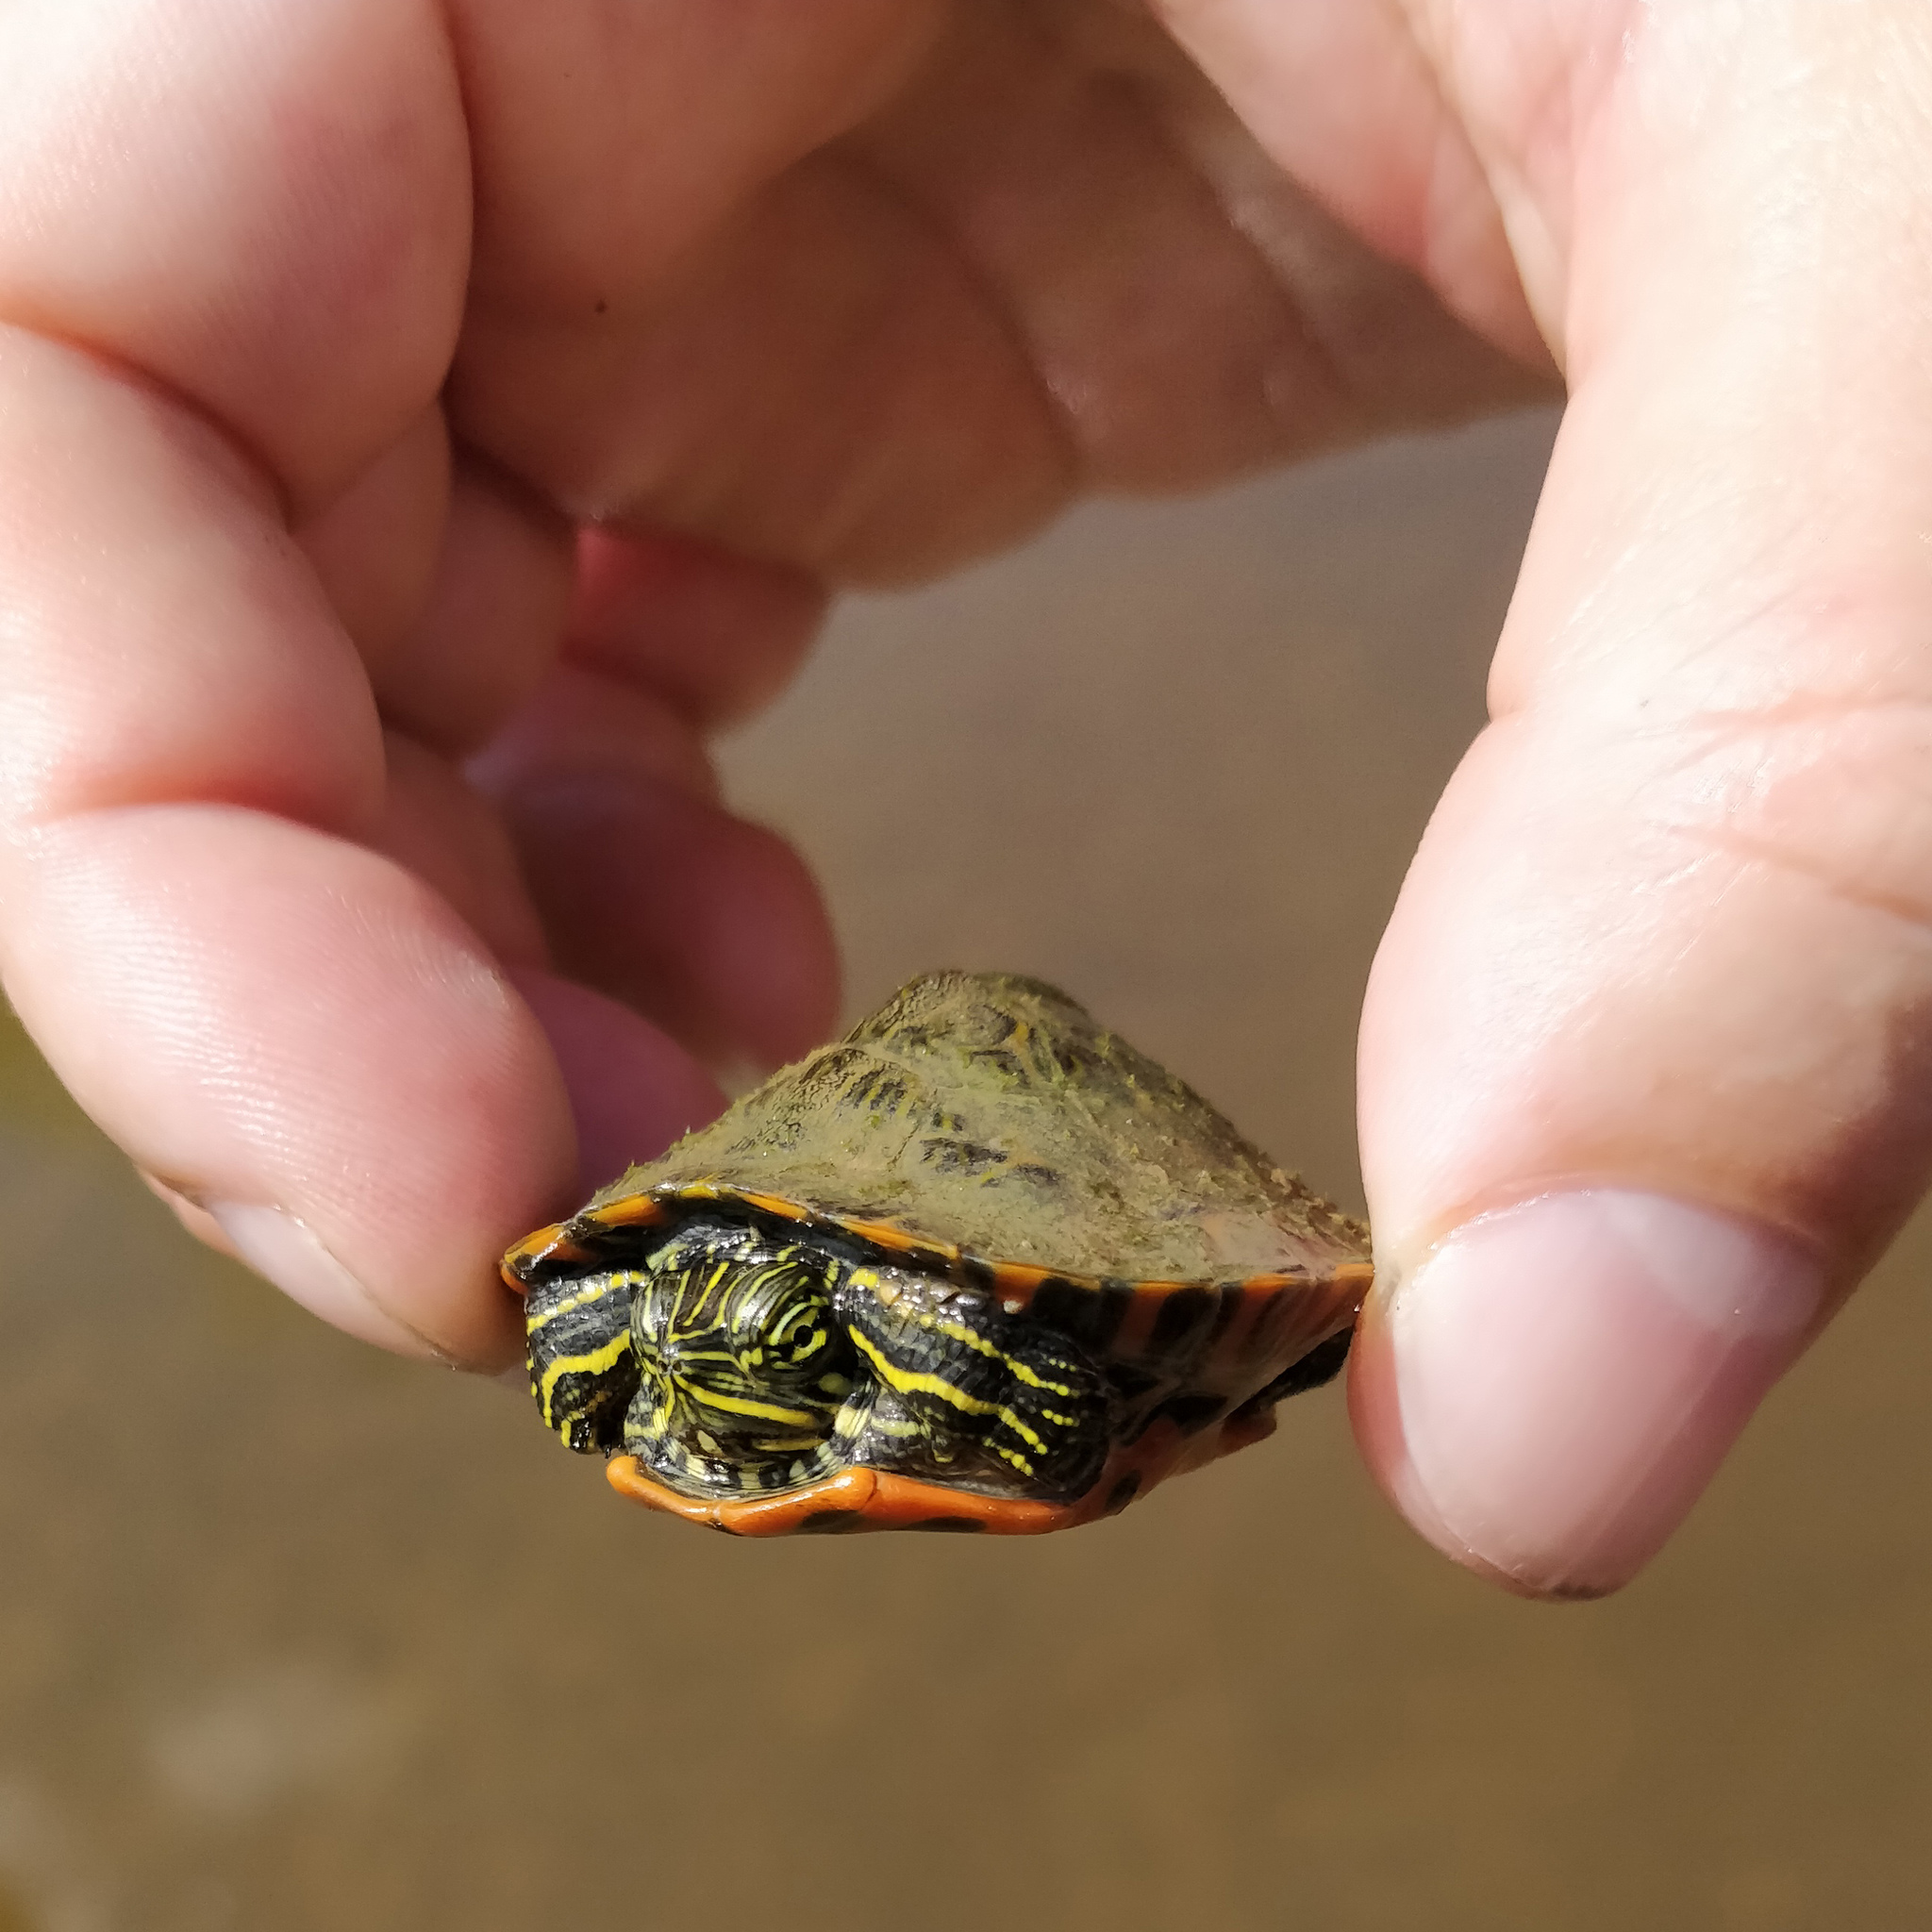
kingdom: Animalia
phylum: Chordata
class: Testudines
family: Emydidae
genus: Pseudemys
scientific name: Pseudemys rubriventris
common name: American red-bellied turtle
